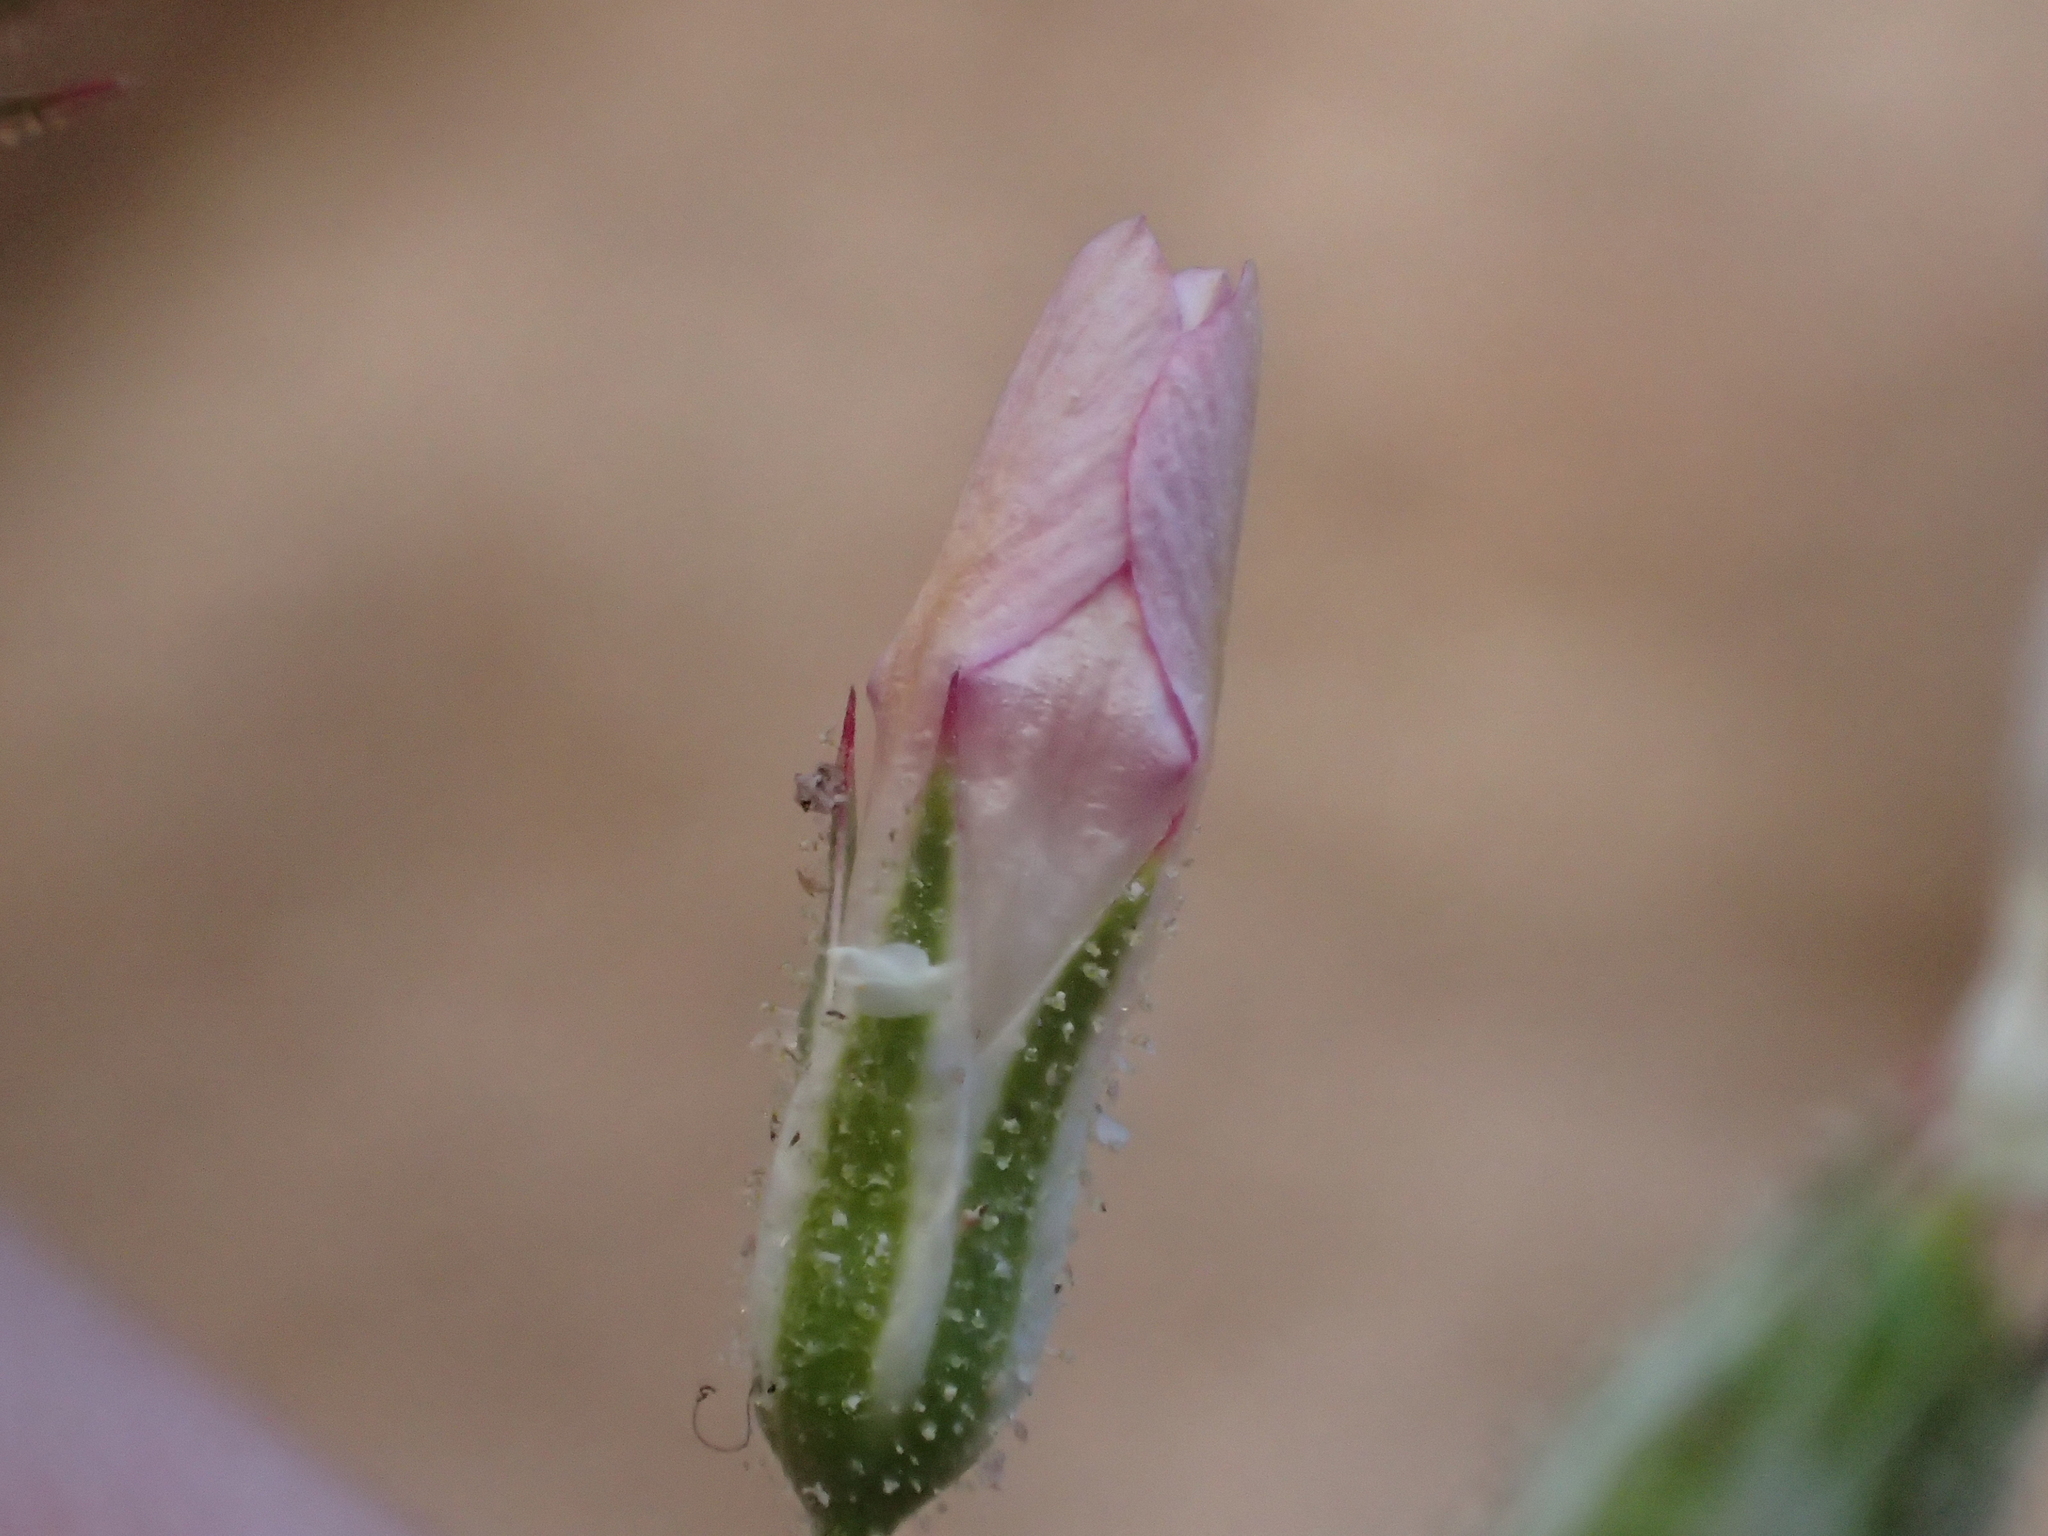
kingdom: Plantae
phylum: Tracheophyta
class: Magnoliopsida
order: Ericales
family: Polemoniaceae
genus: Aliciella
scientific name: Aliciella latifolia
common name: Broad-leaf gilia
